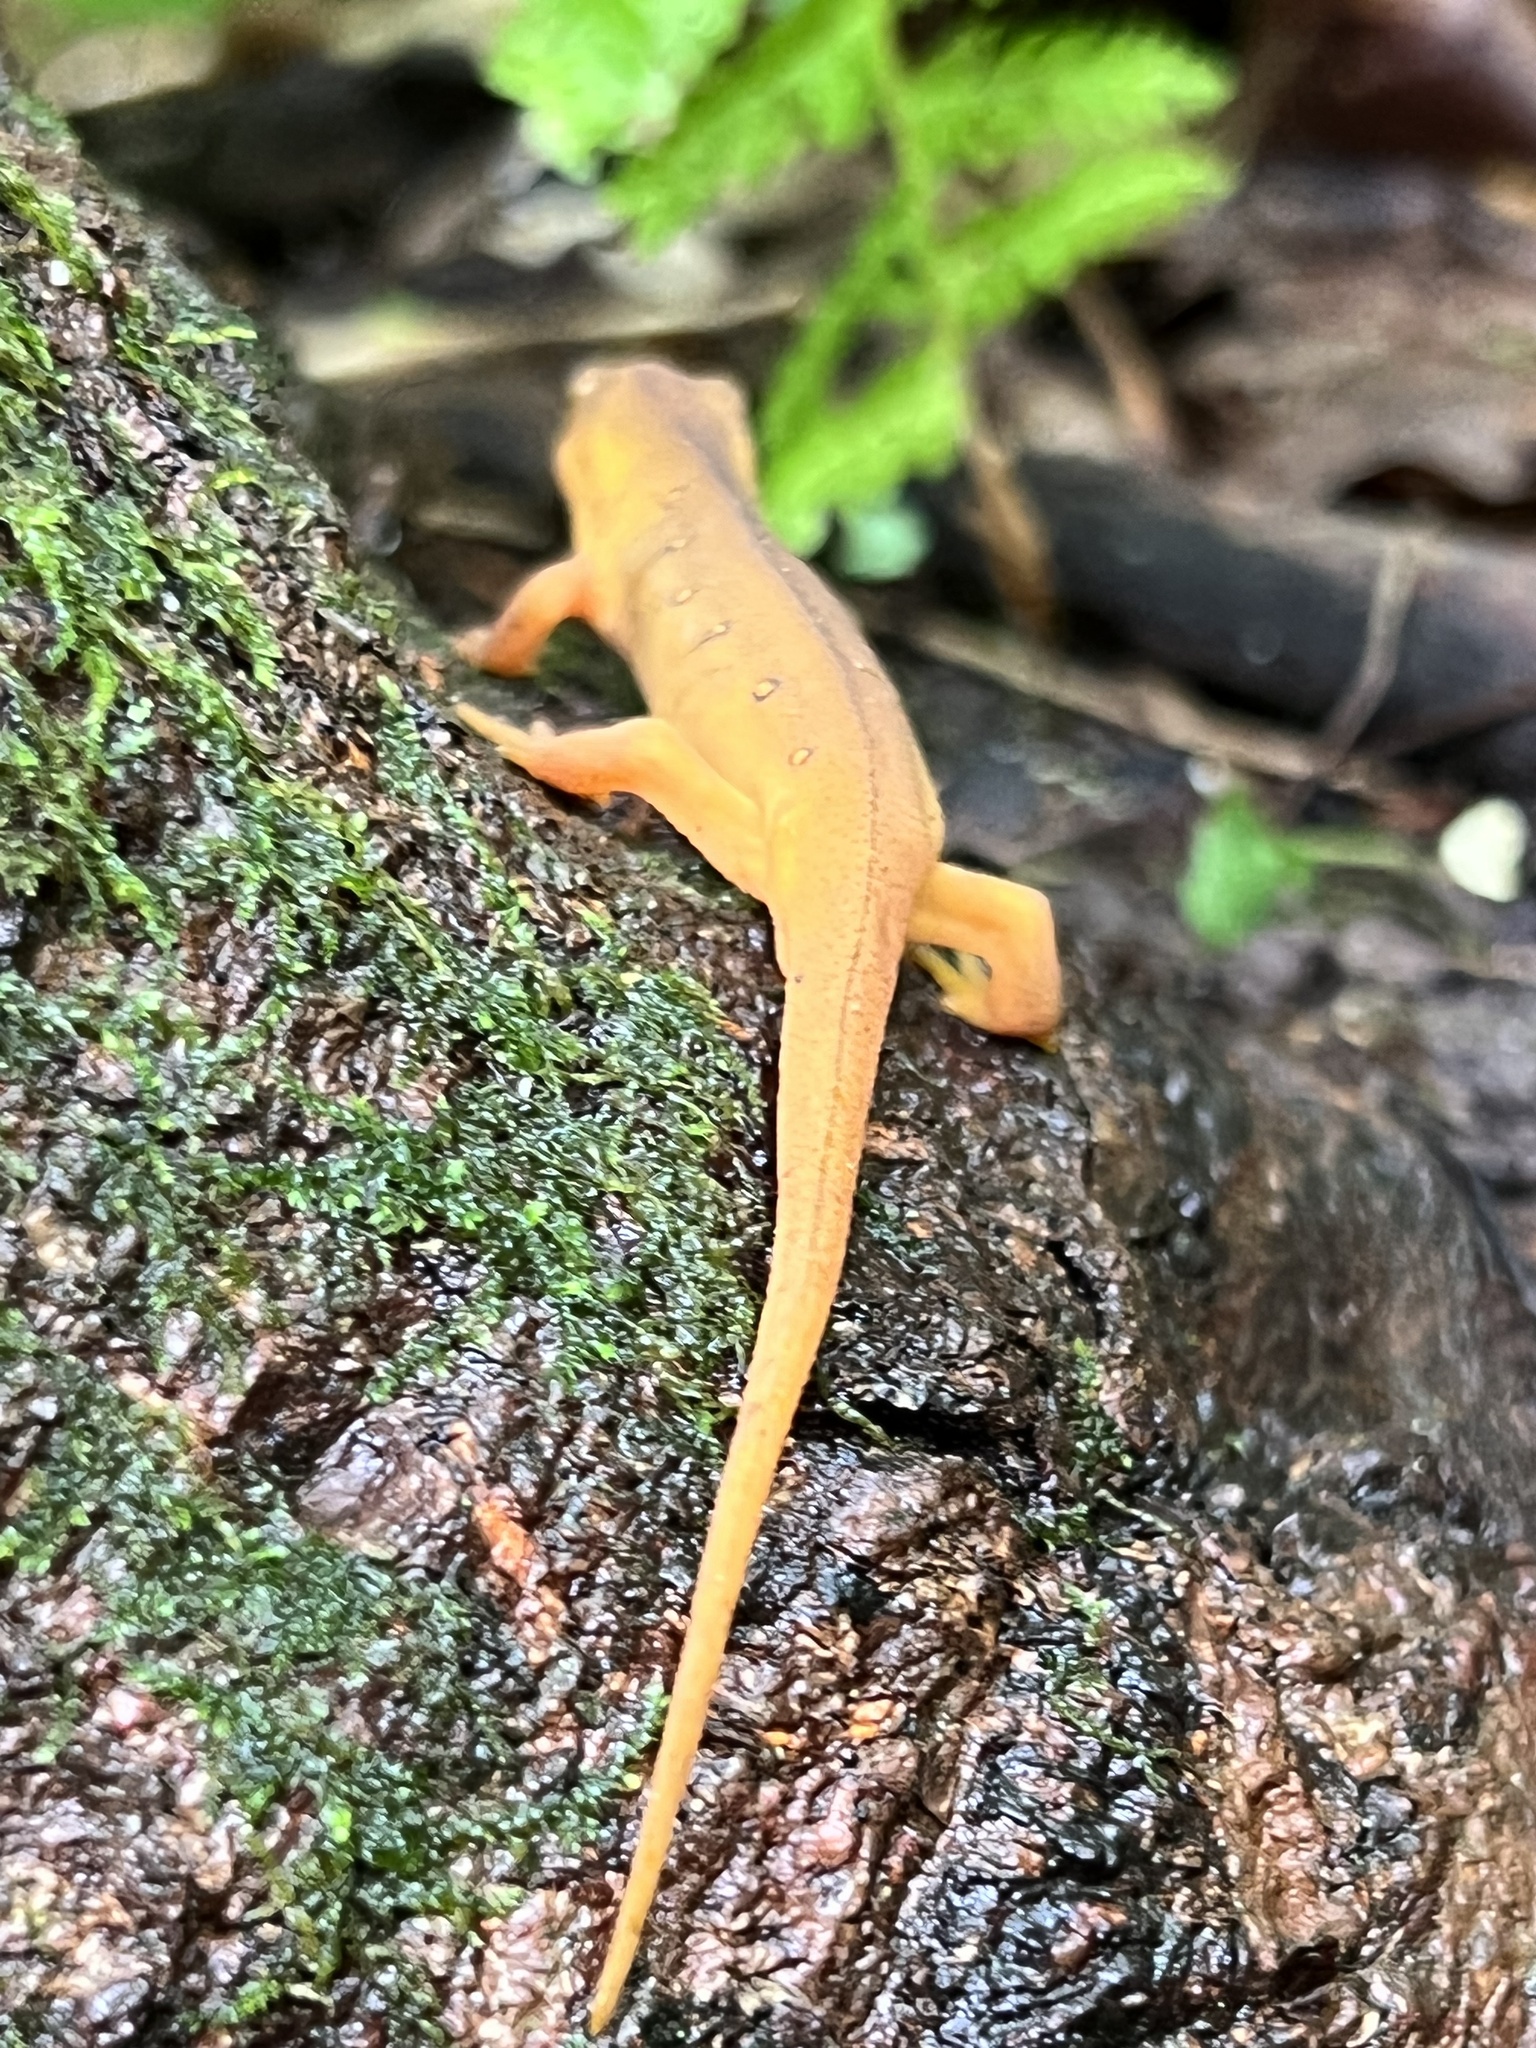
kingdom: Animalia
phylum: Chordata
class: Amphibia
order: Caudata
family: Salamandridae
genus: Notophthalmus
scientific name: Notophthalmus viridescens
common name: Eastern newt
